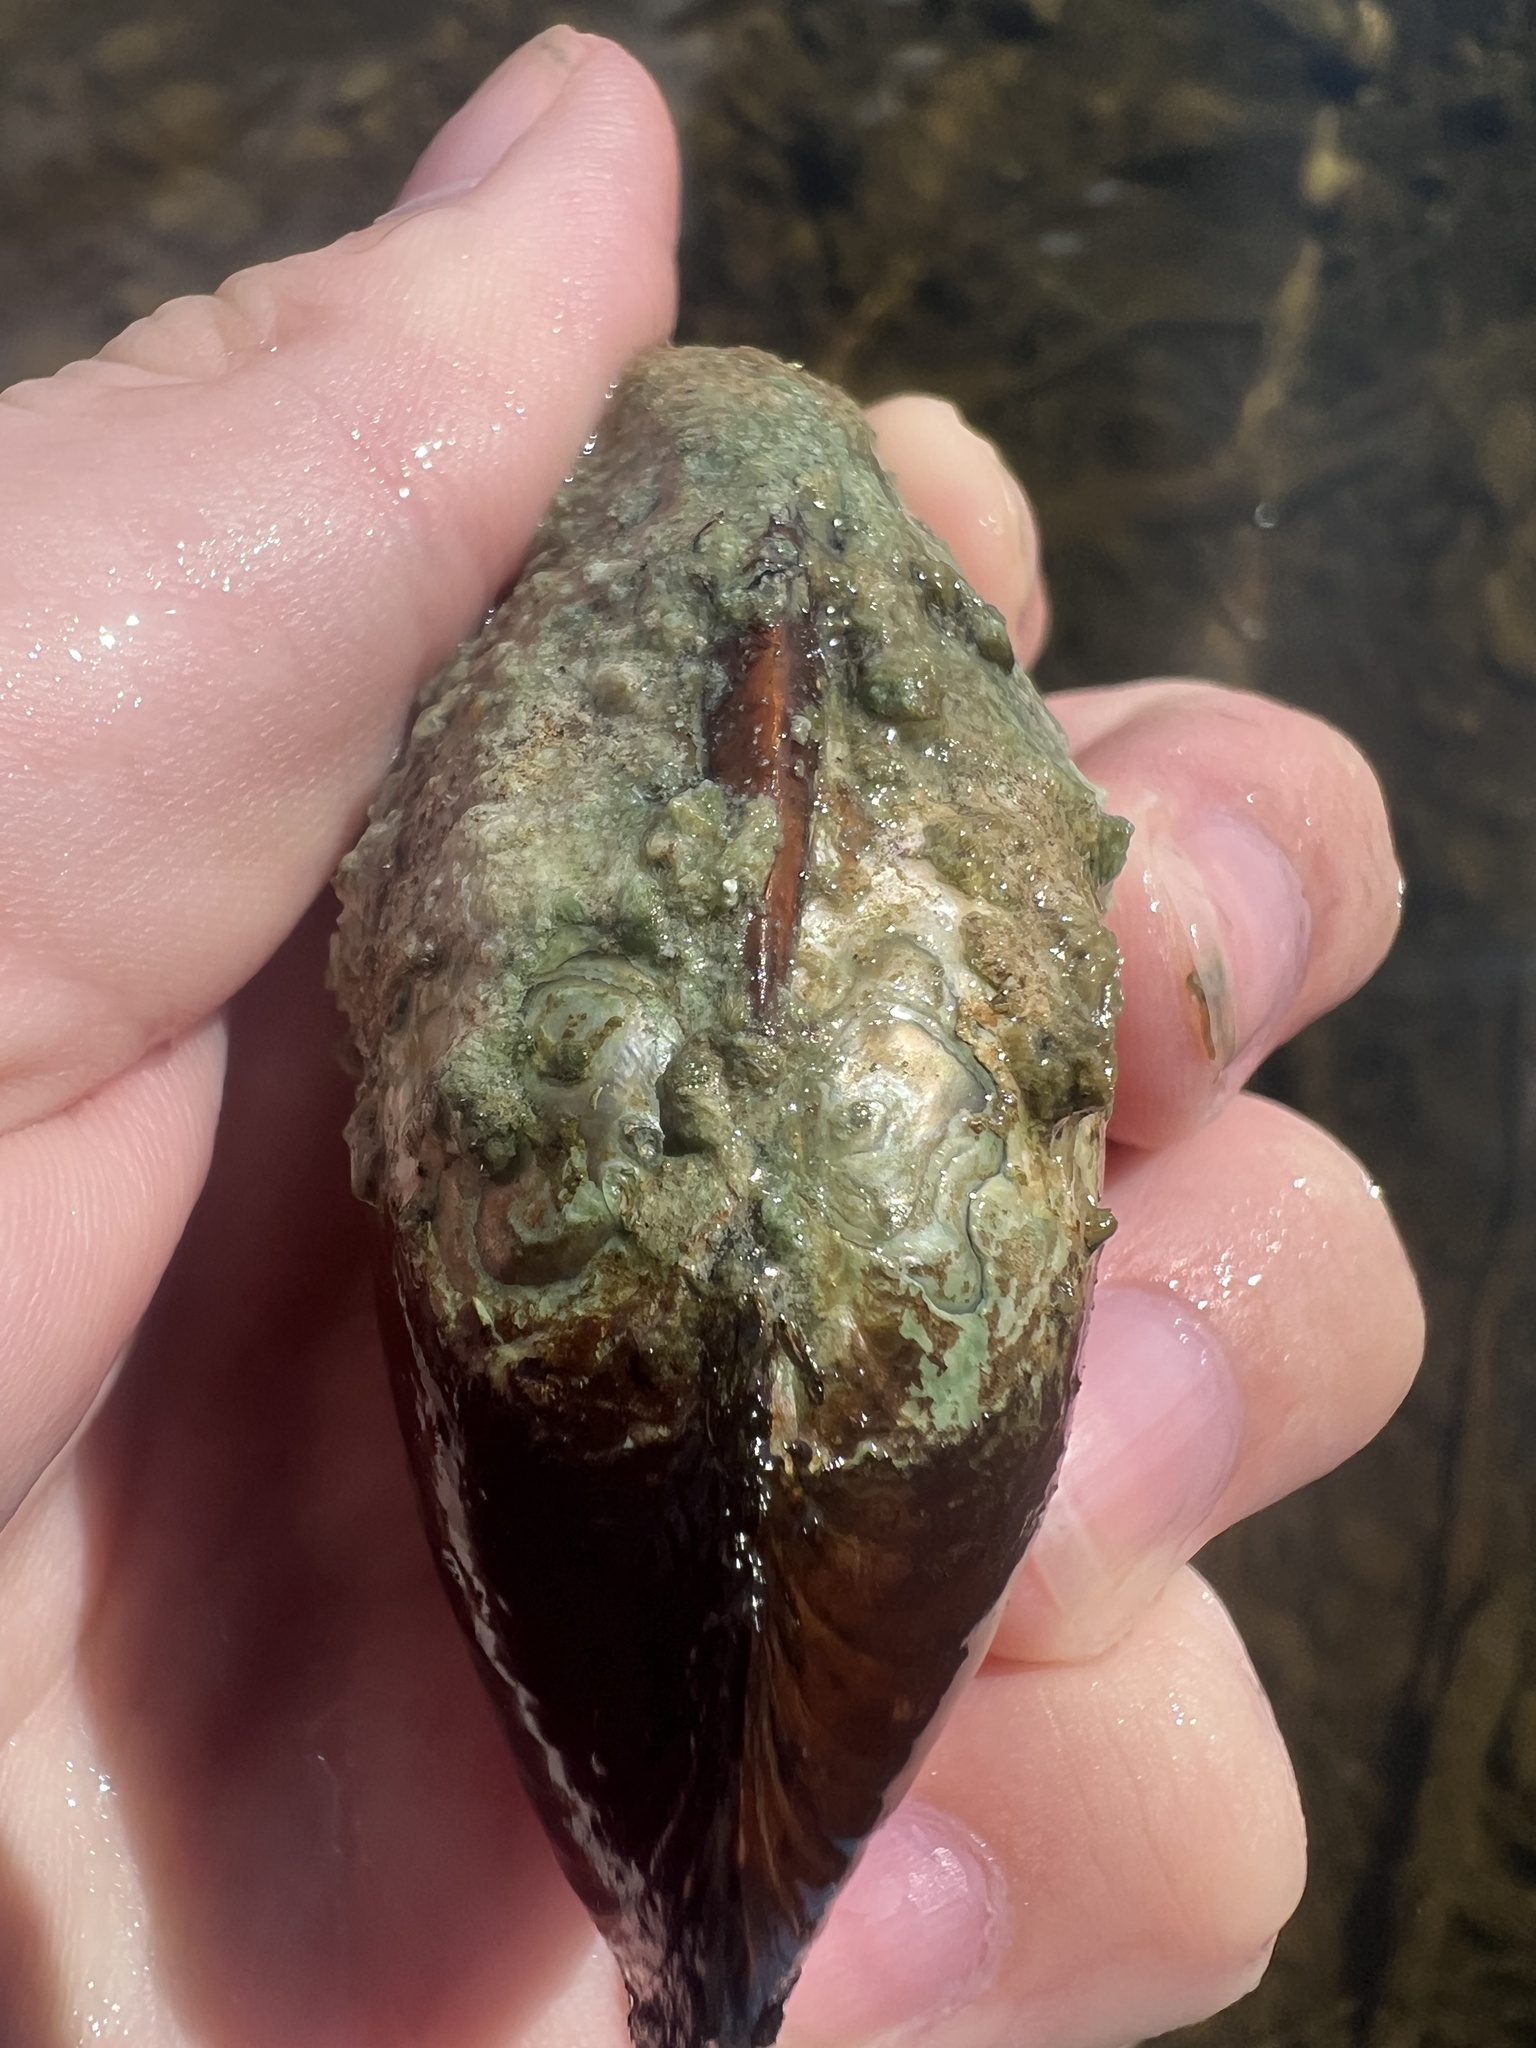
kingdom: Animalia
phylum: Mollusca
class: Bivalvia
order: Unionida
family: Unionidae
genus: Lampsilis
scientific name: Lampsilis siliquoidea
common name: Fatmucket
